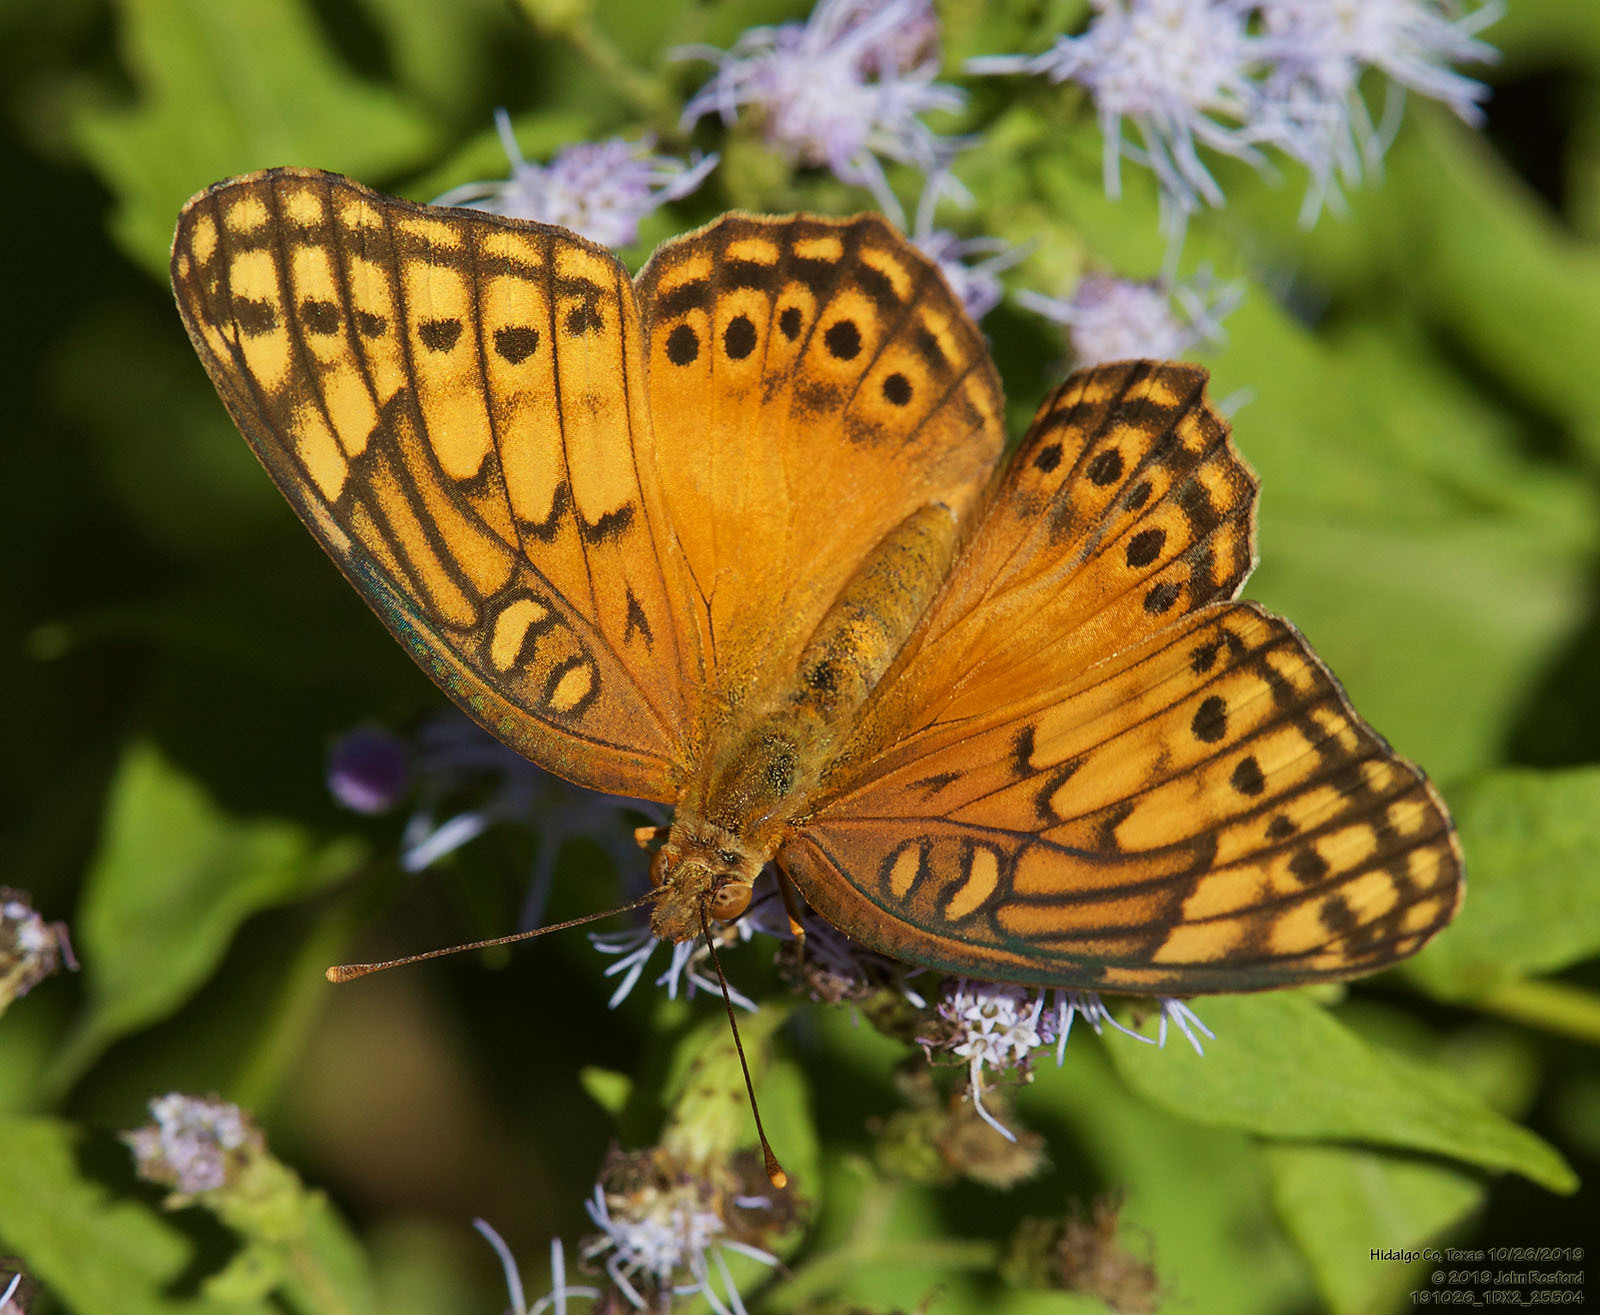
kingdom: Animalia
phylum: Arthropoda
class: Insecta
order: Lepidoptera
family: Nymphalidae
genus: Euptoieta
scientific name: Euptoieta hegesia
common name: Mexican fritillary
